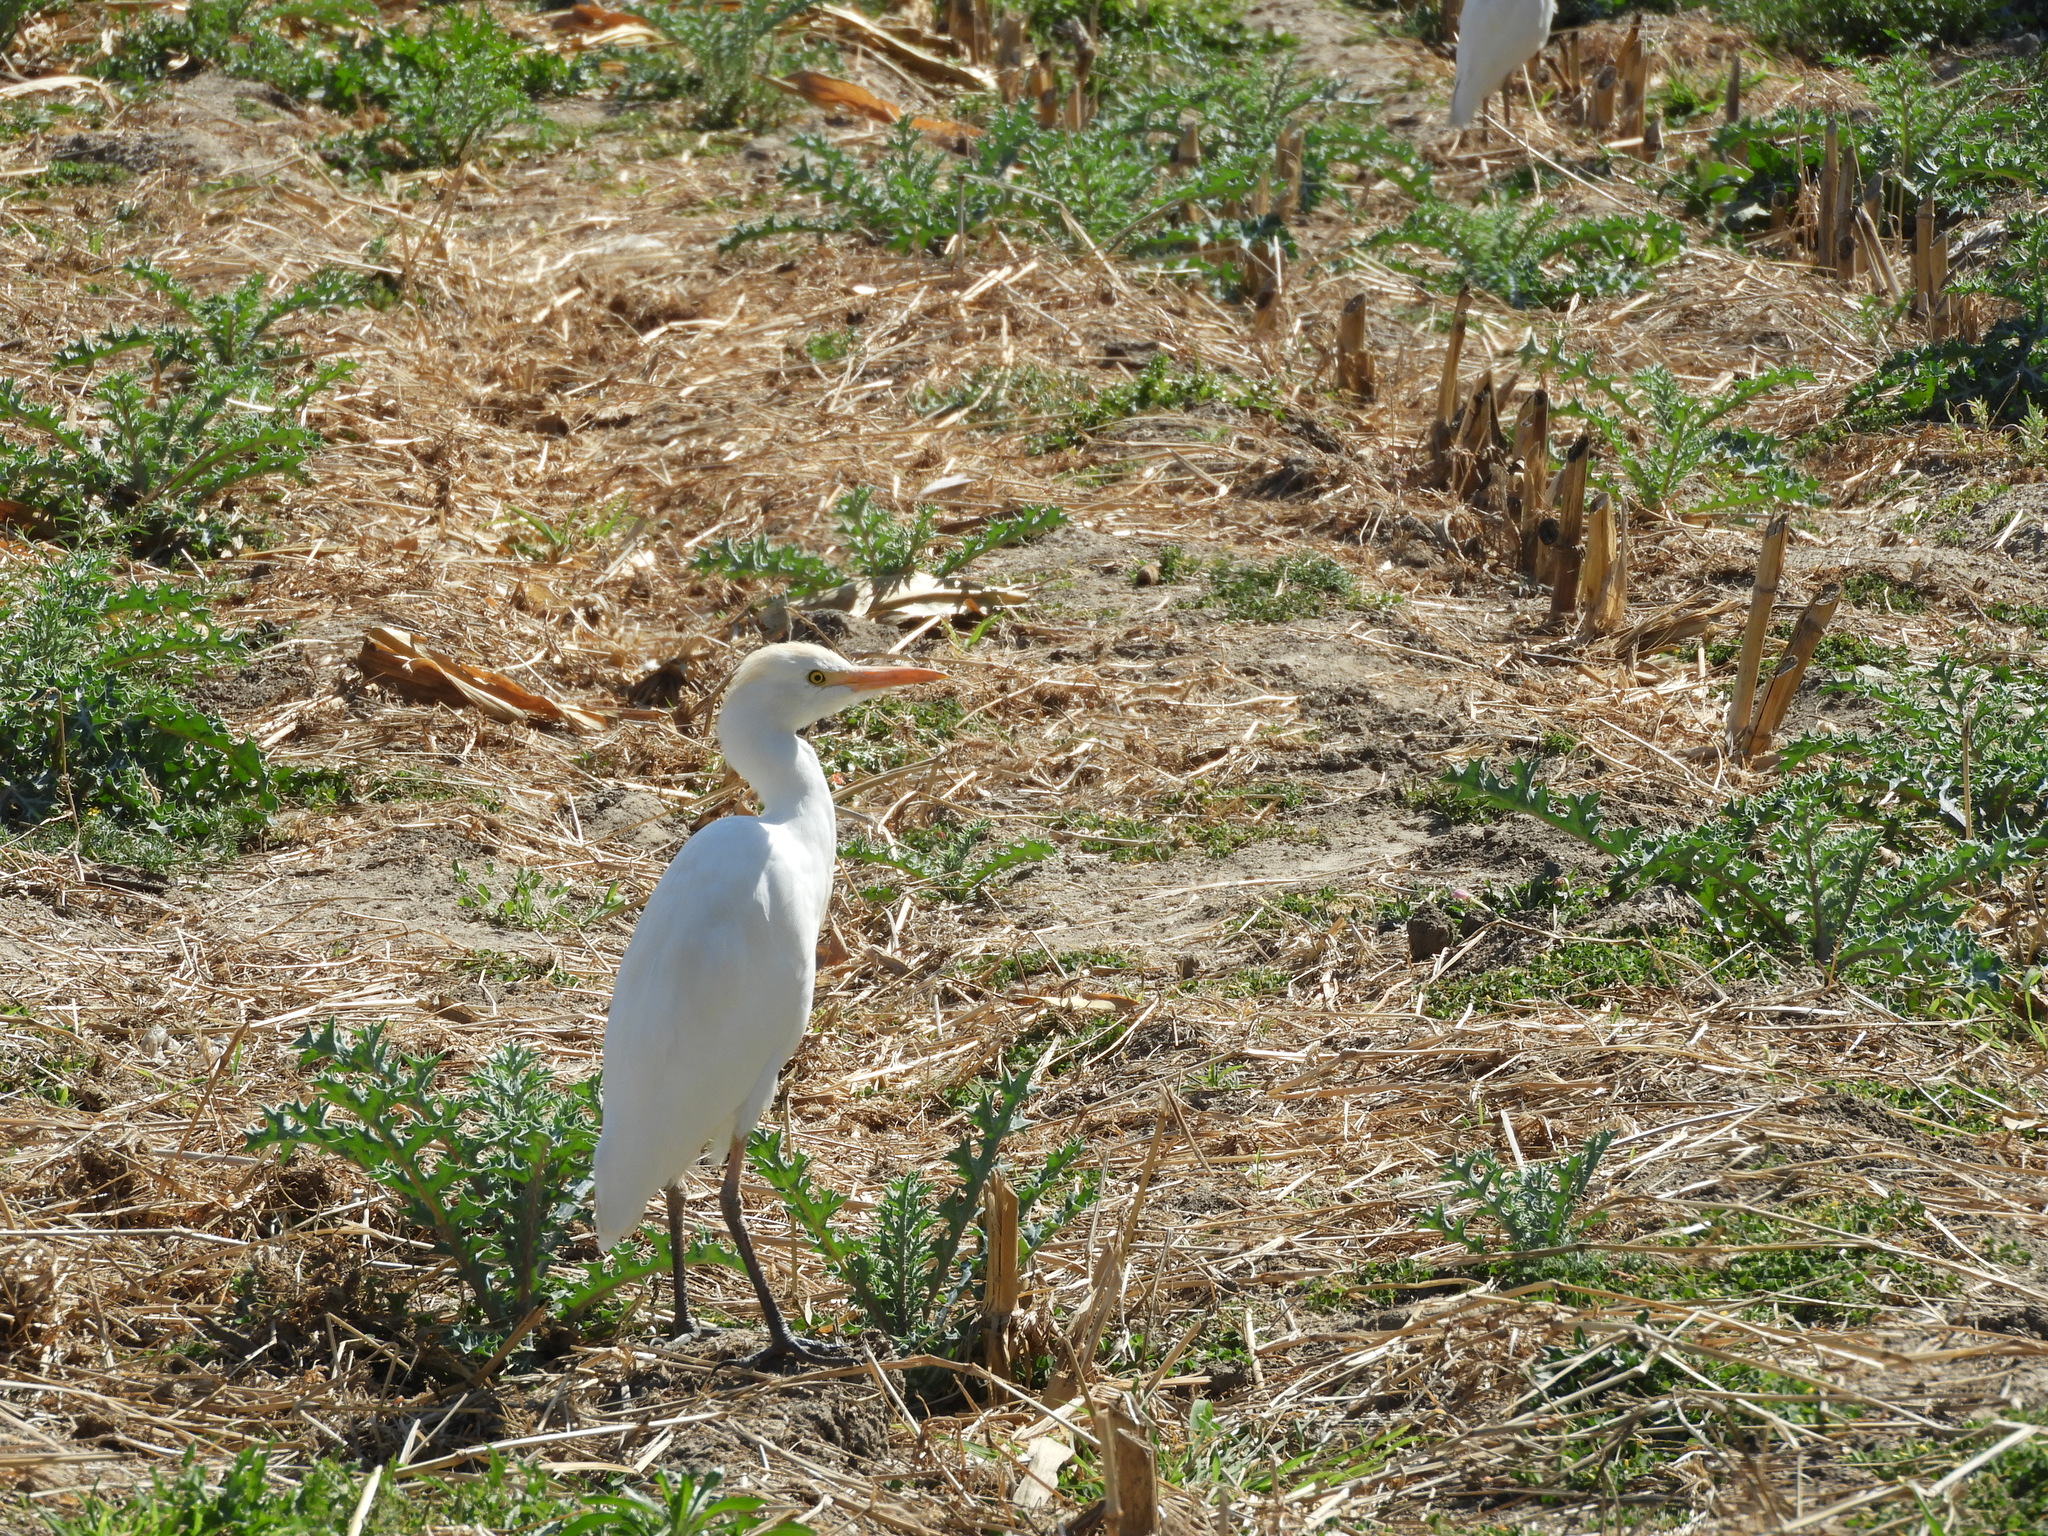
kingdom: Animalia
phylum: Chordata
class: Aves
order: Pelecaniformes
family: Ardeidae
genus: Bubulcus
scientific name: Bubulcus ibis
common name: Cattle egret
